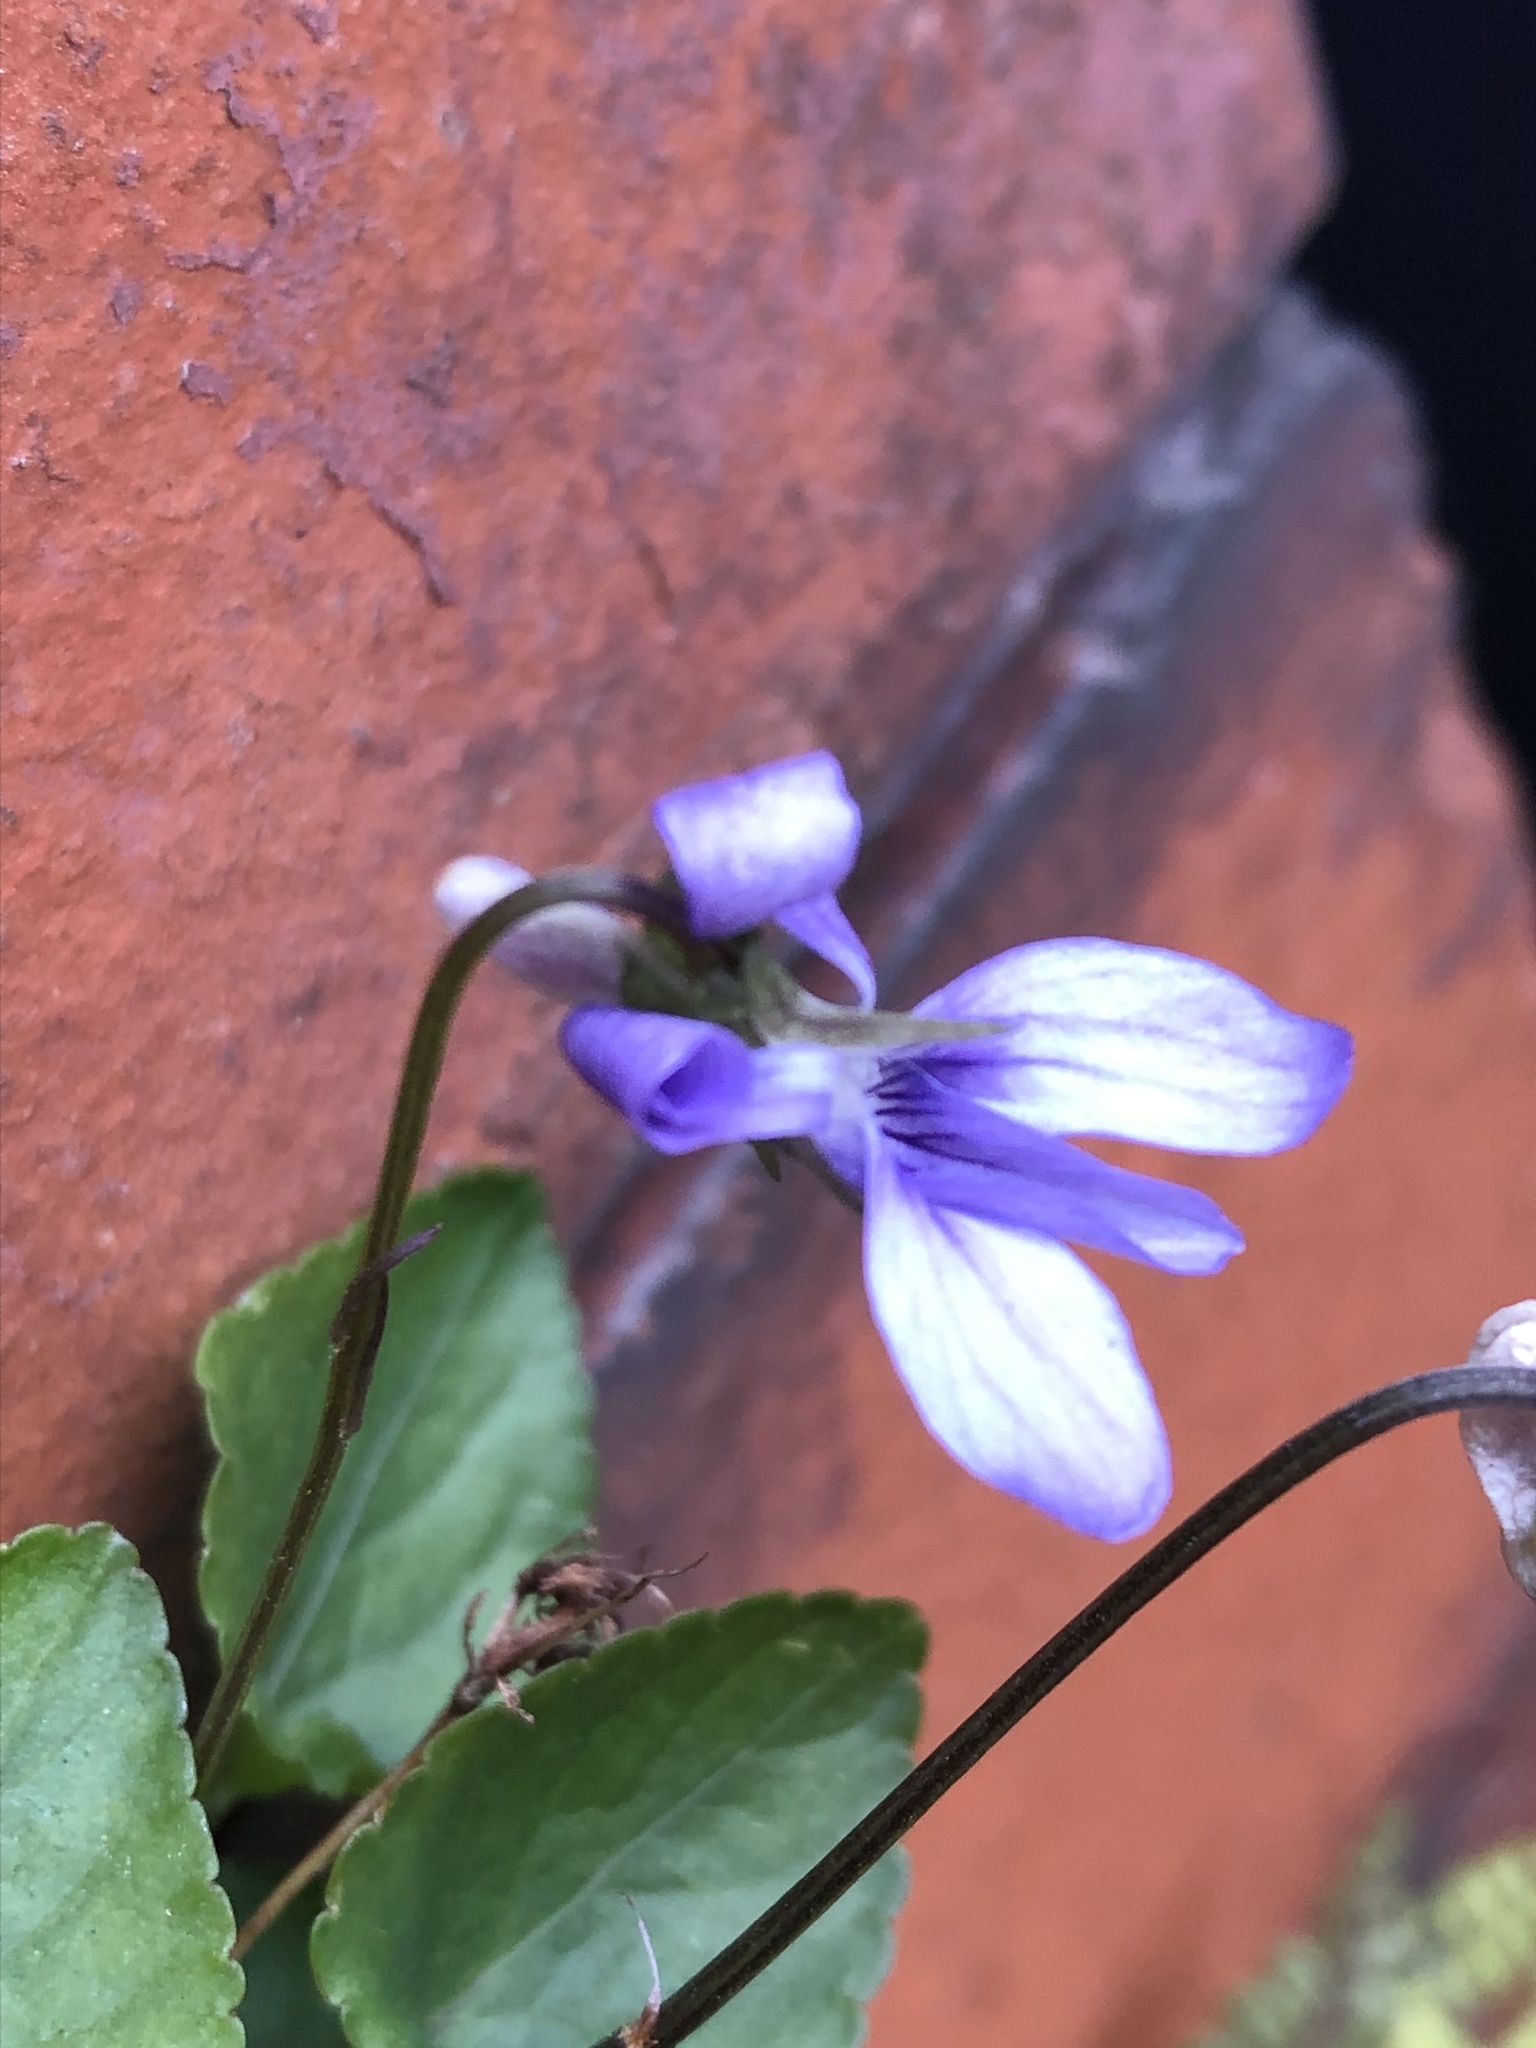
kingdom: Plantae
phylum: Tracheophyta
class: Magnoliopsida
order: Malpighiales
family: Violaceae
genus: Viola
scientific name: Viola riviniana
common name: Common dog-violet
